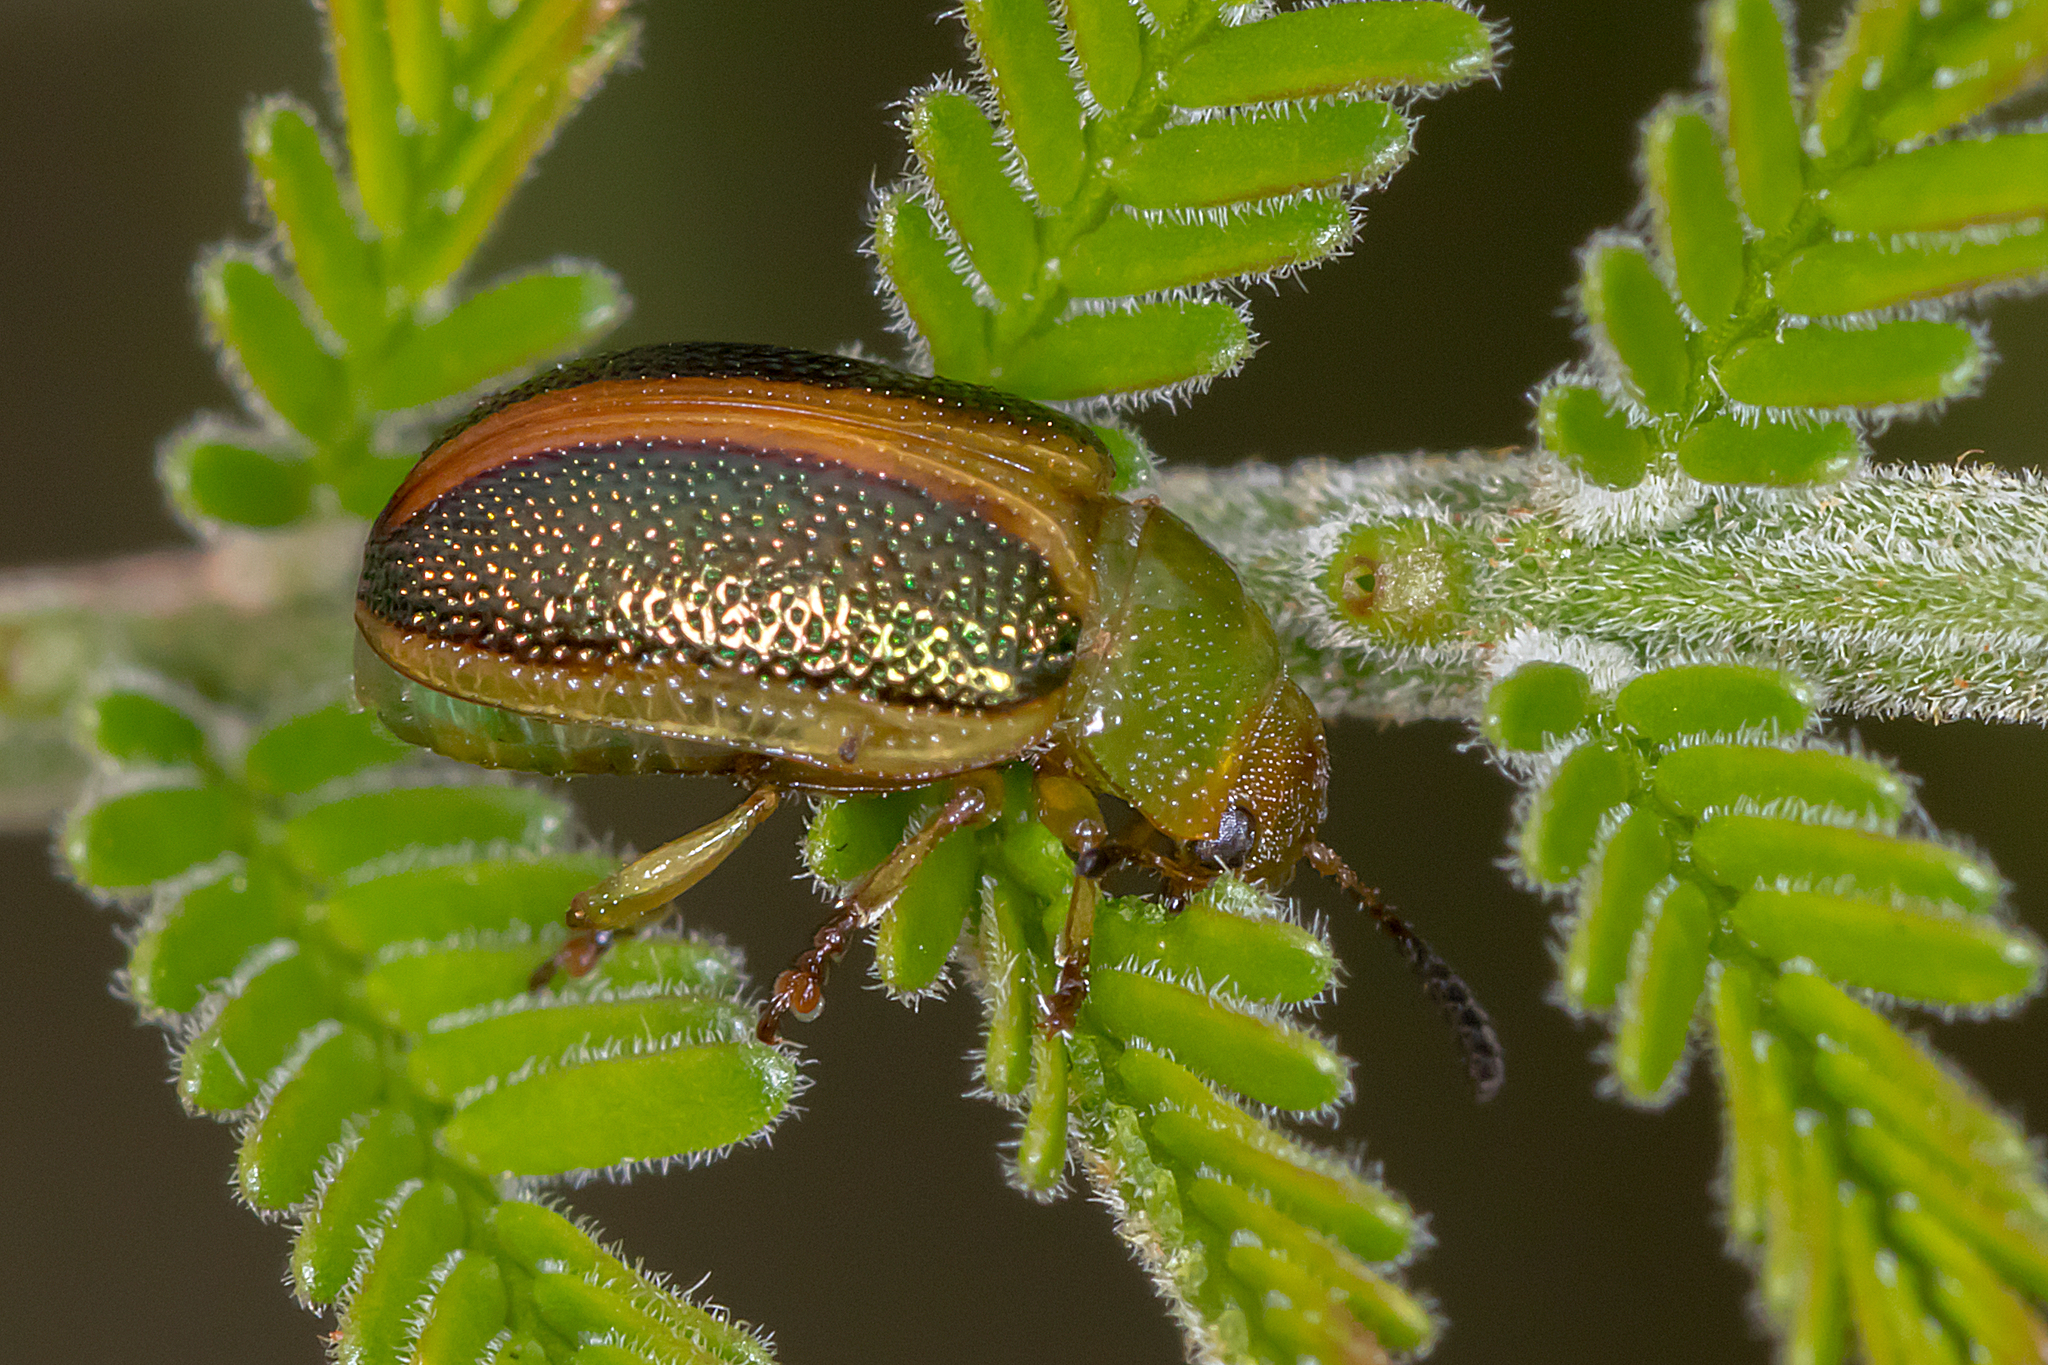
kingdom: Animalia
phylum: Arthropoda
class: Insecta
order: Coleoptera
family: Chrysomelidae
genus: Calomela
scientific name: Calomela
